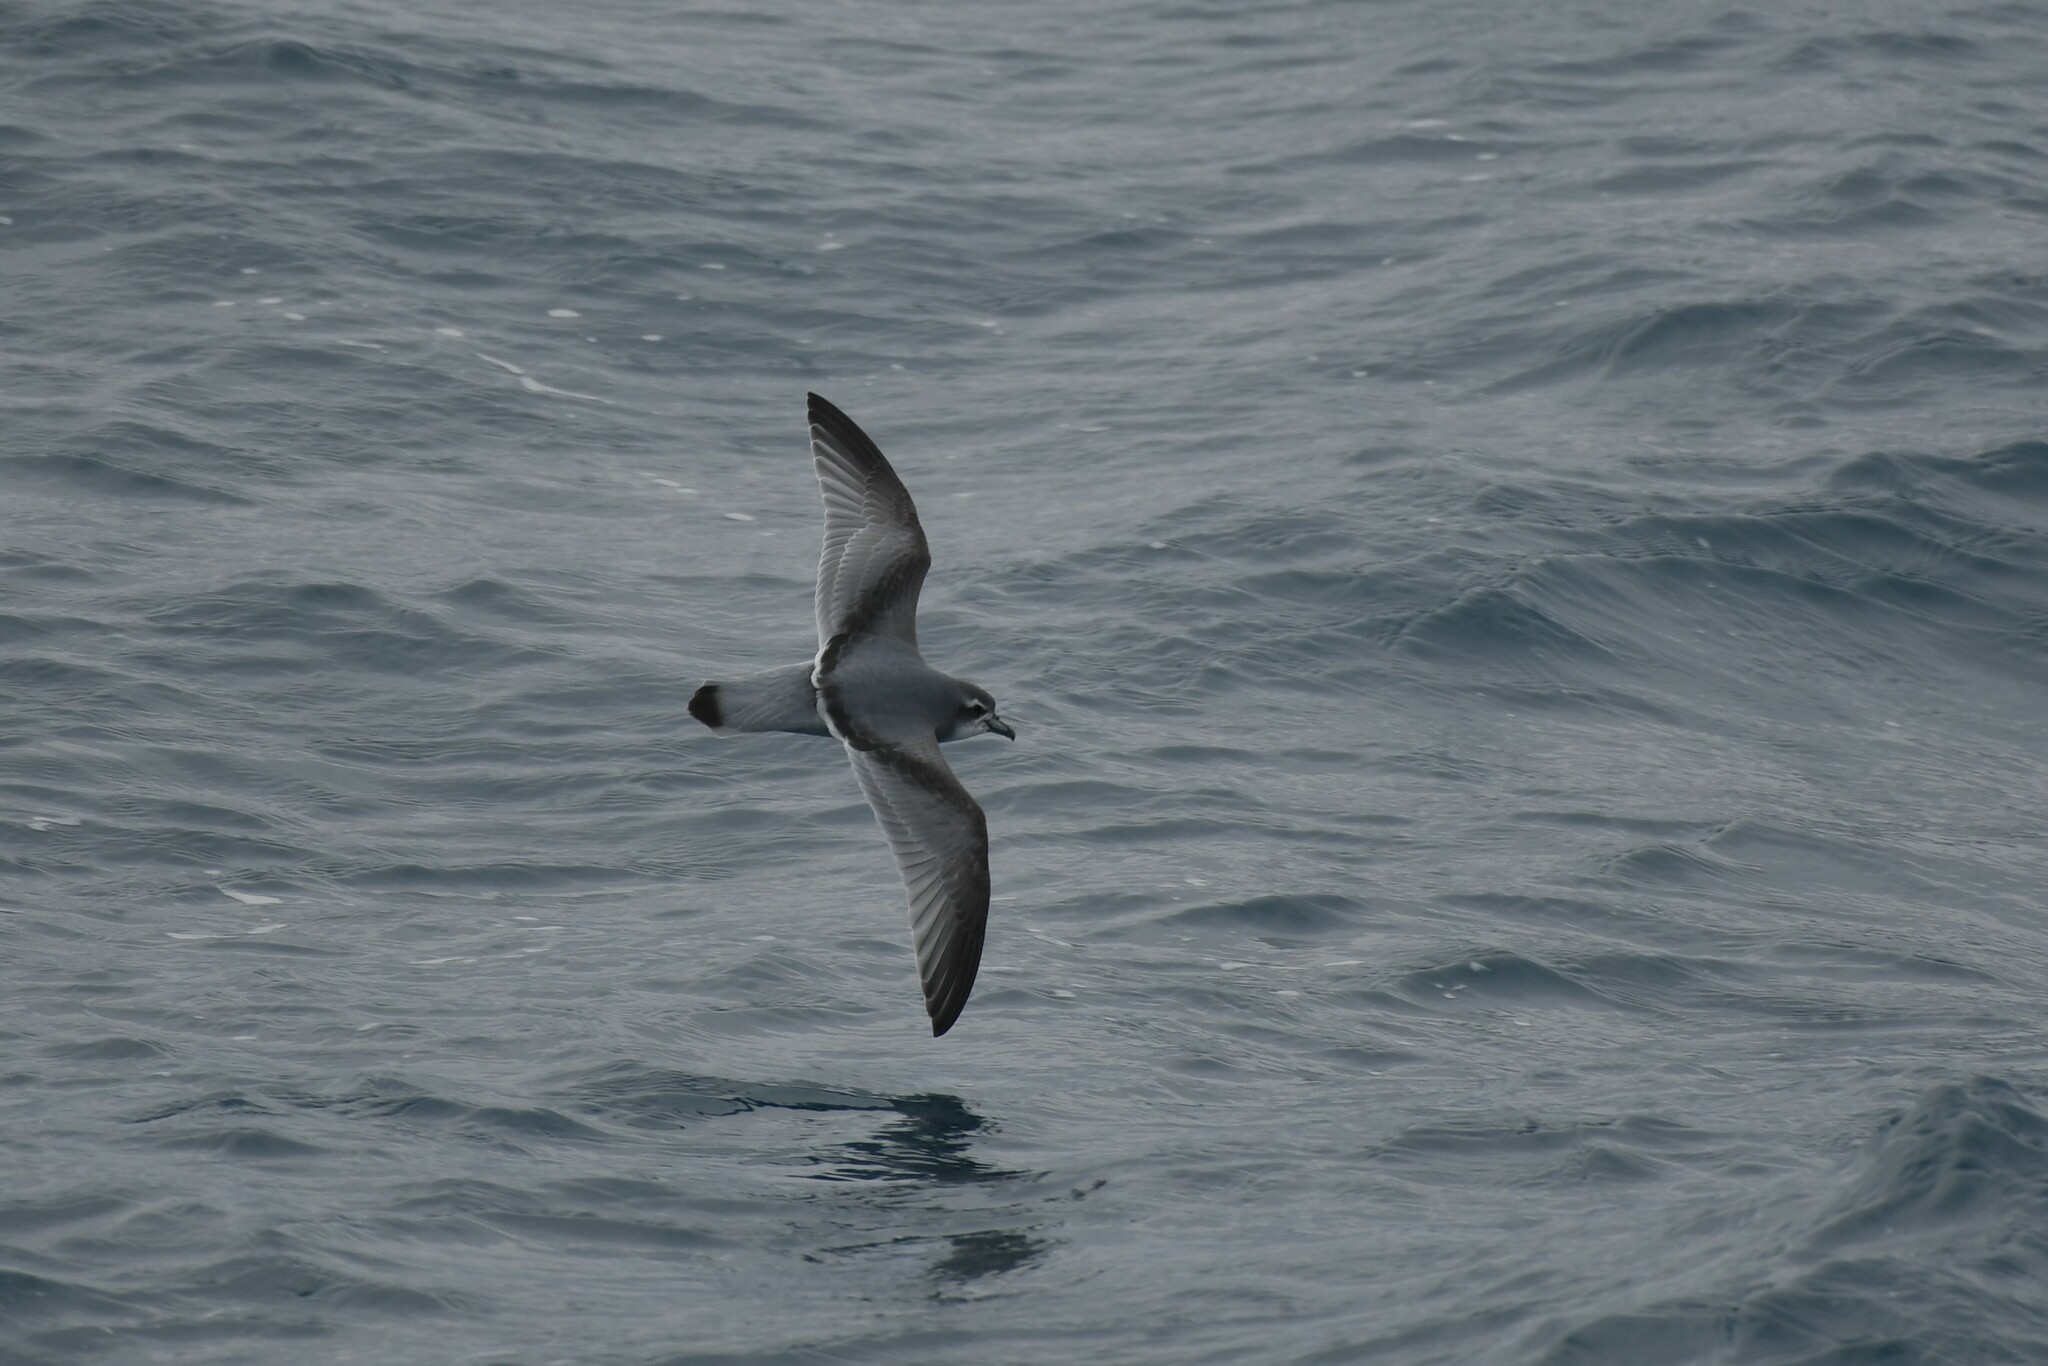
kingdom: Animalia
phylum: Chordata
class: Aves
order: Procellariiformes
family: Procellariidae
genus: Pachyptila
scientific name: Pachyptila desolata
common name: Antarctic prion
